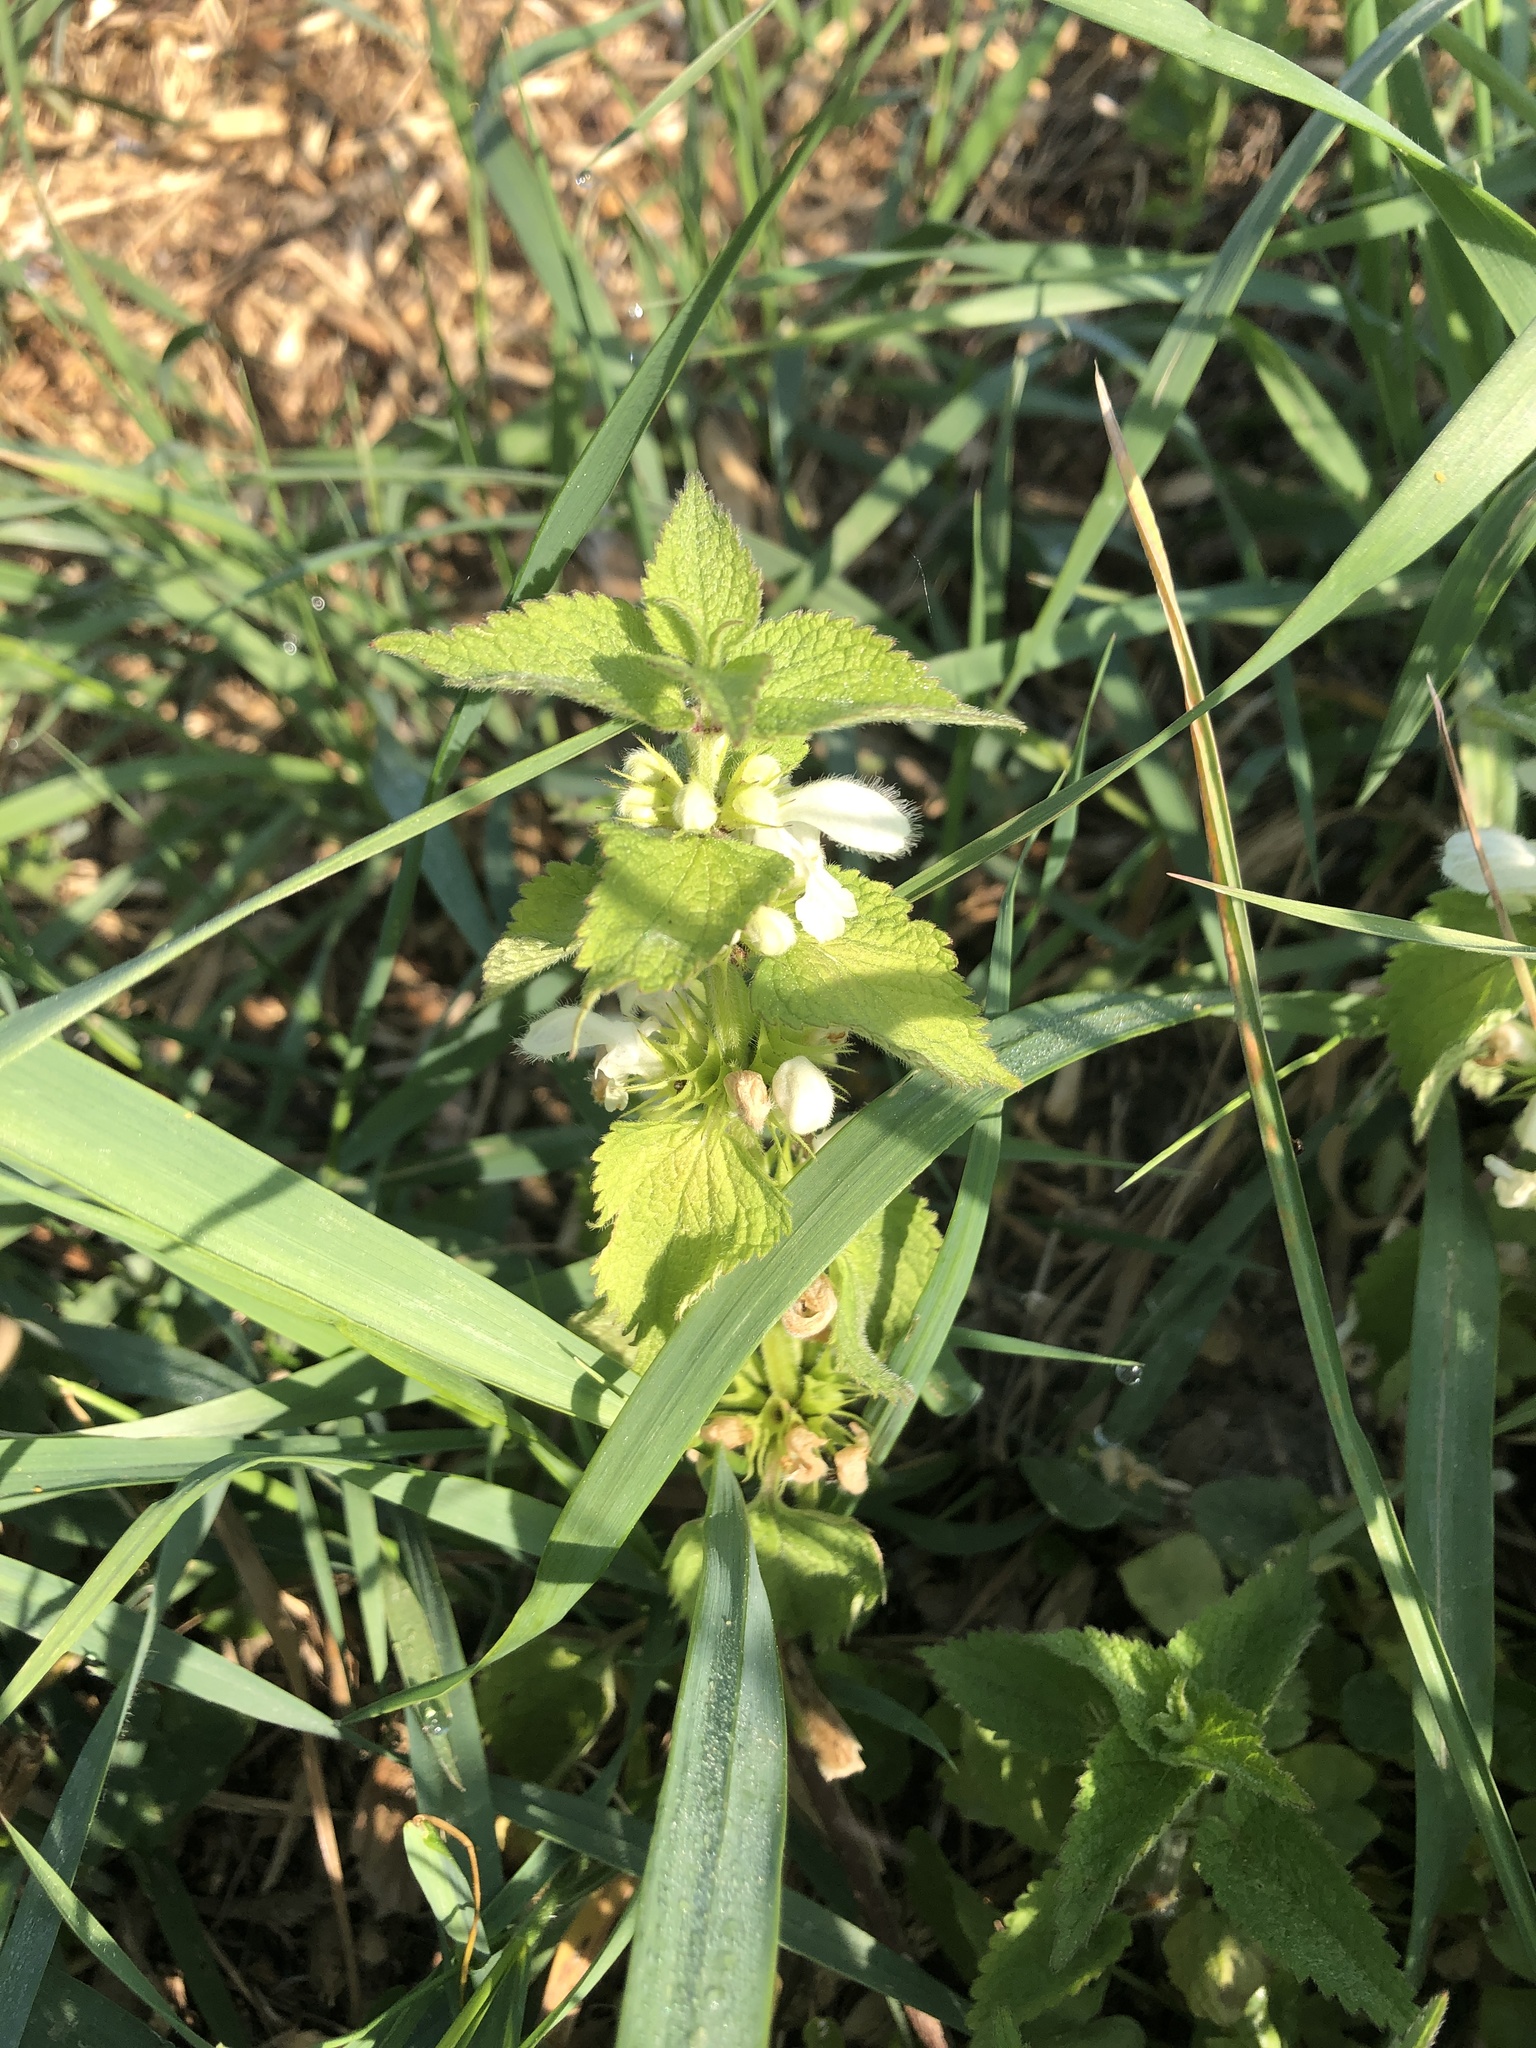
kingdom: Plantae
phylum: Tracheophyta
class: Magnoliopsida
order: Lamiales
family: Lamiaceae
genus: Lamium
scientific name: Lamium album
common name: White dead-nettle
